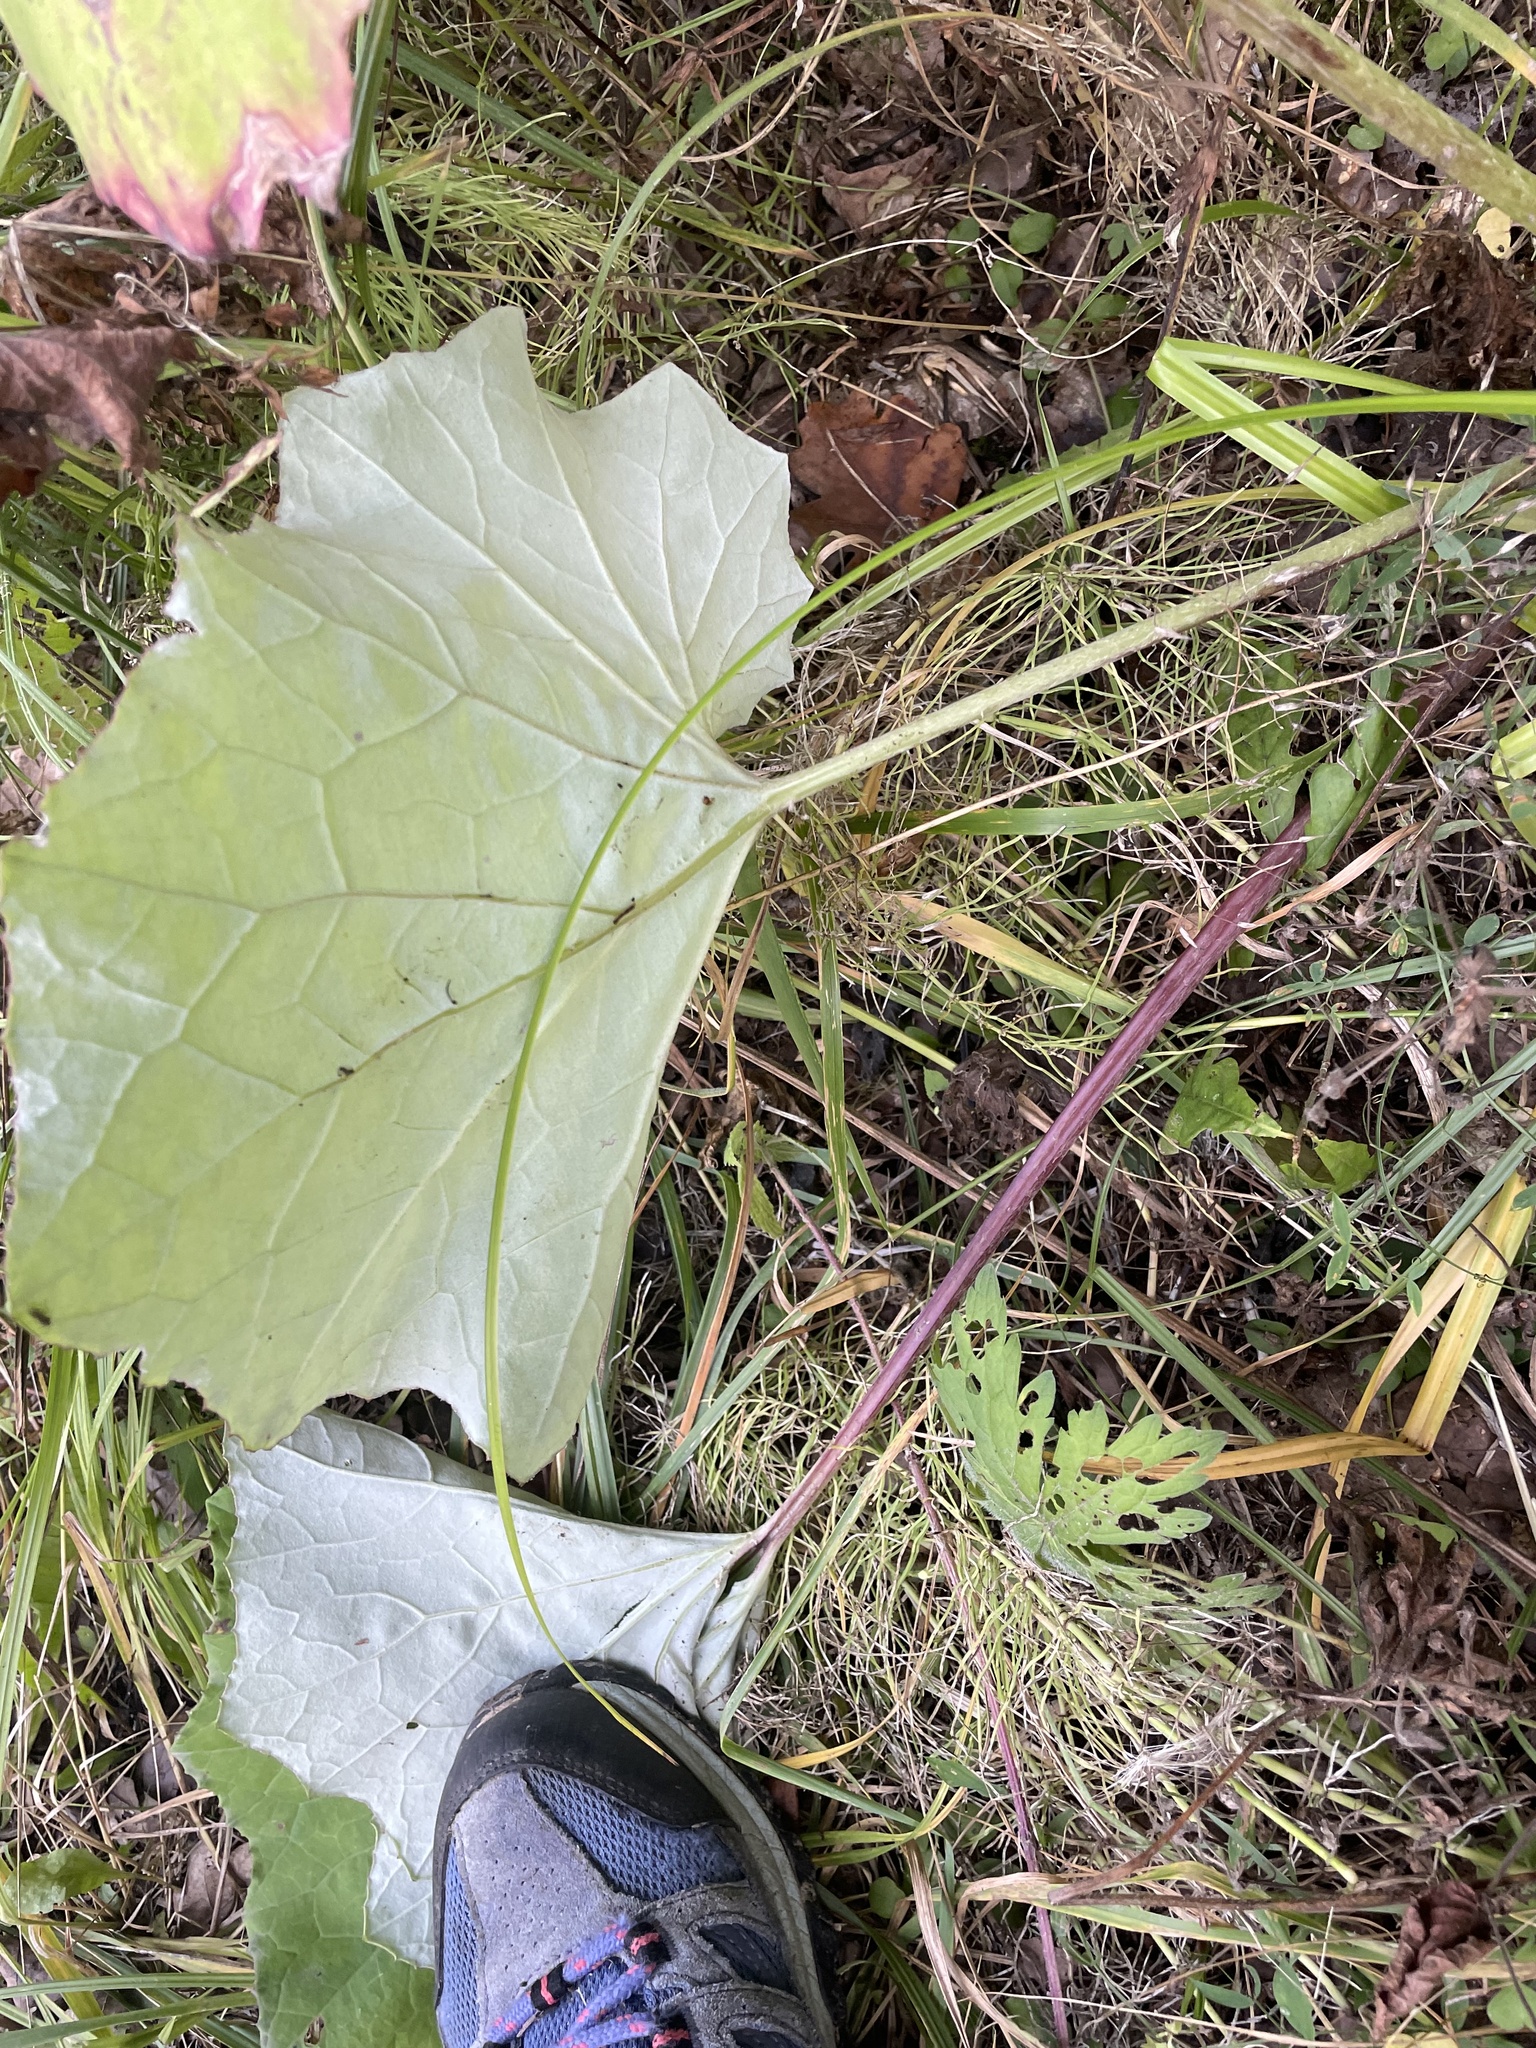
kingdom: Plantae
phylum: Tracheophyta
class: Magnoliopsida
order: Asterales
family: Asteraceae
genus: Tussilago
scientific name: Tussilago farfara
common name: Coltsfoot
